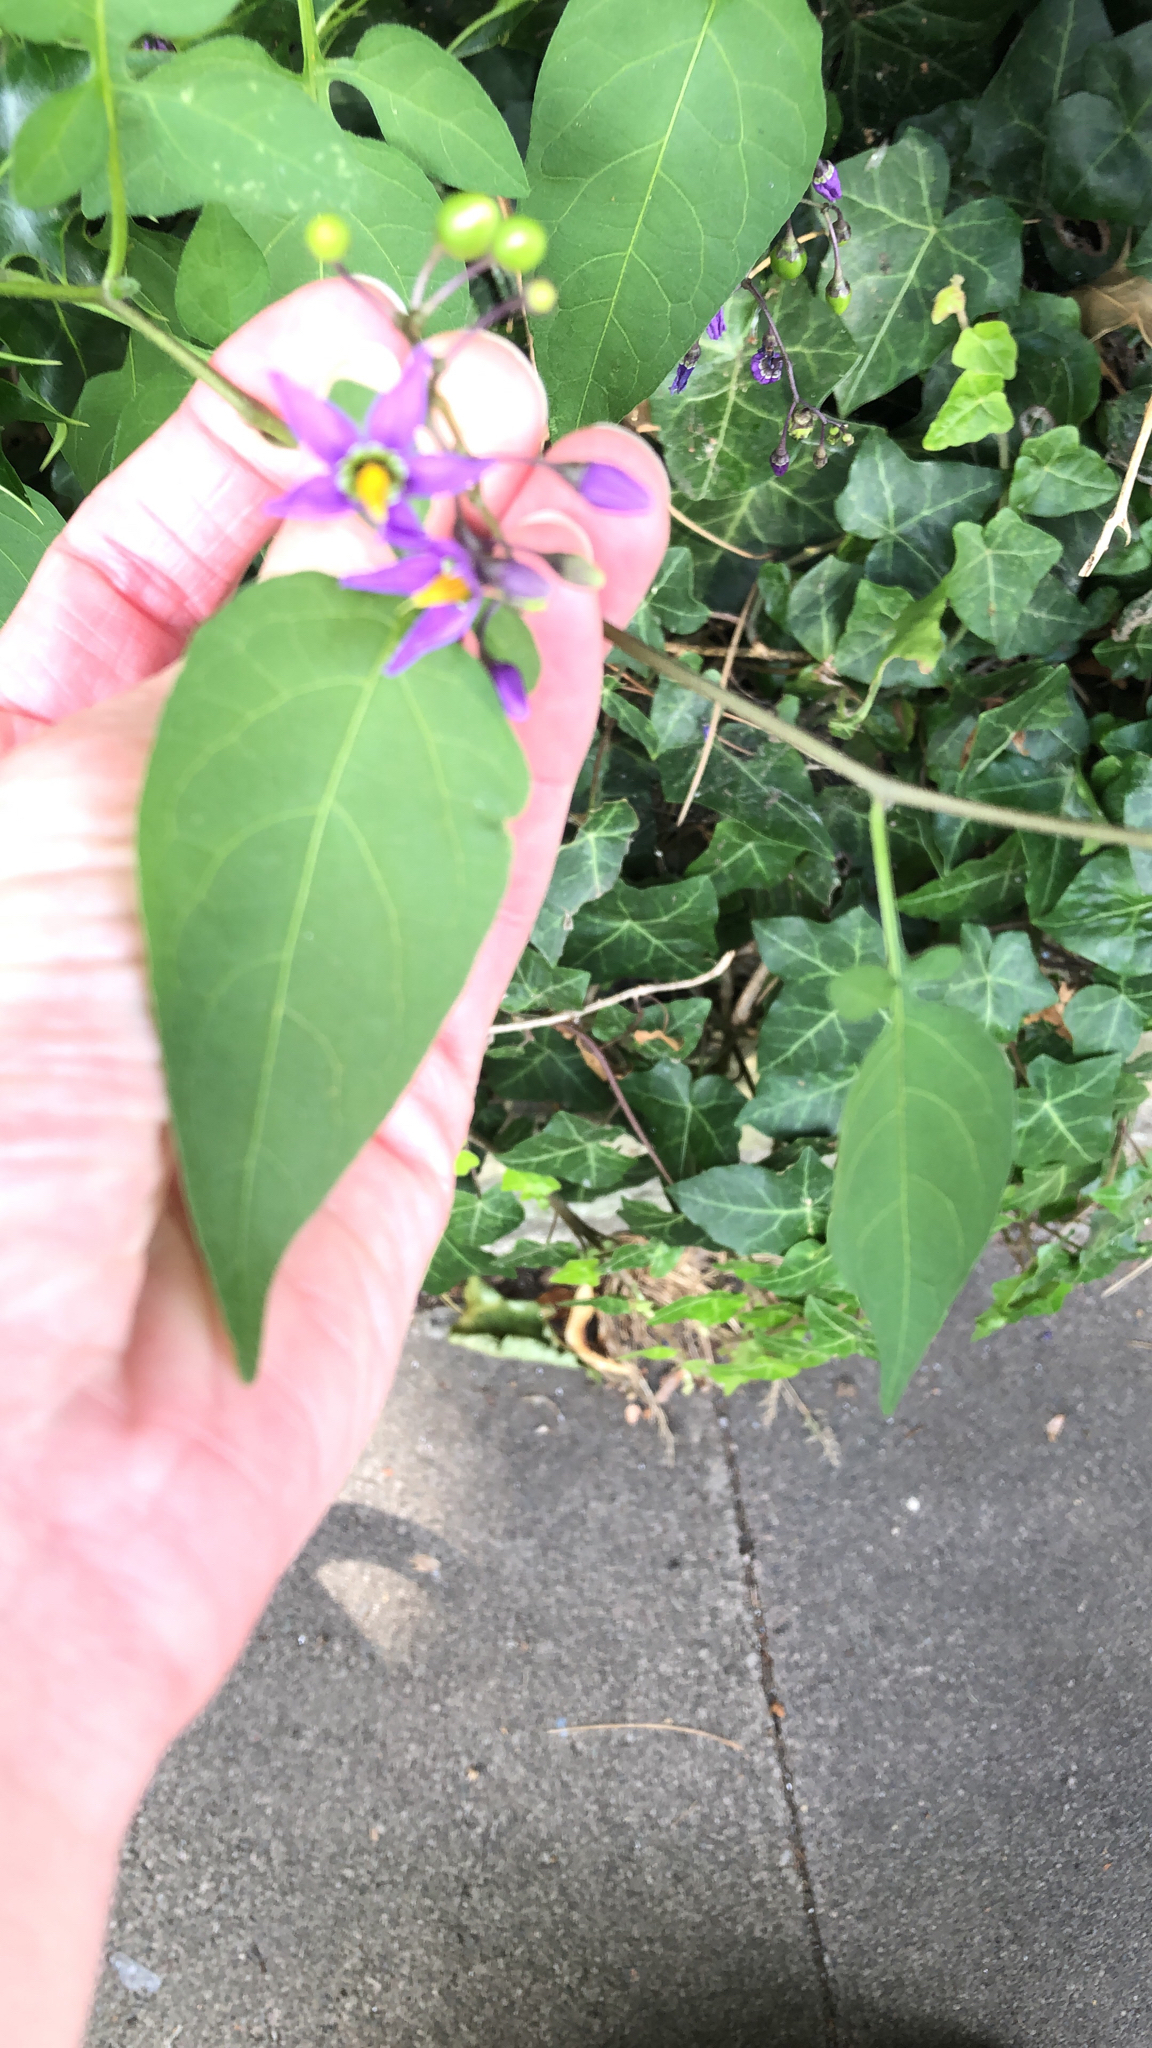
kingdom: Plantae
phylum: Tracheophyta
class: Magnoliopsida
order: Solanales
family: Solanaceae
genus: Solanum
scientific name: Solanum dulcamara
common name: Climbing nightshade
